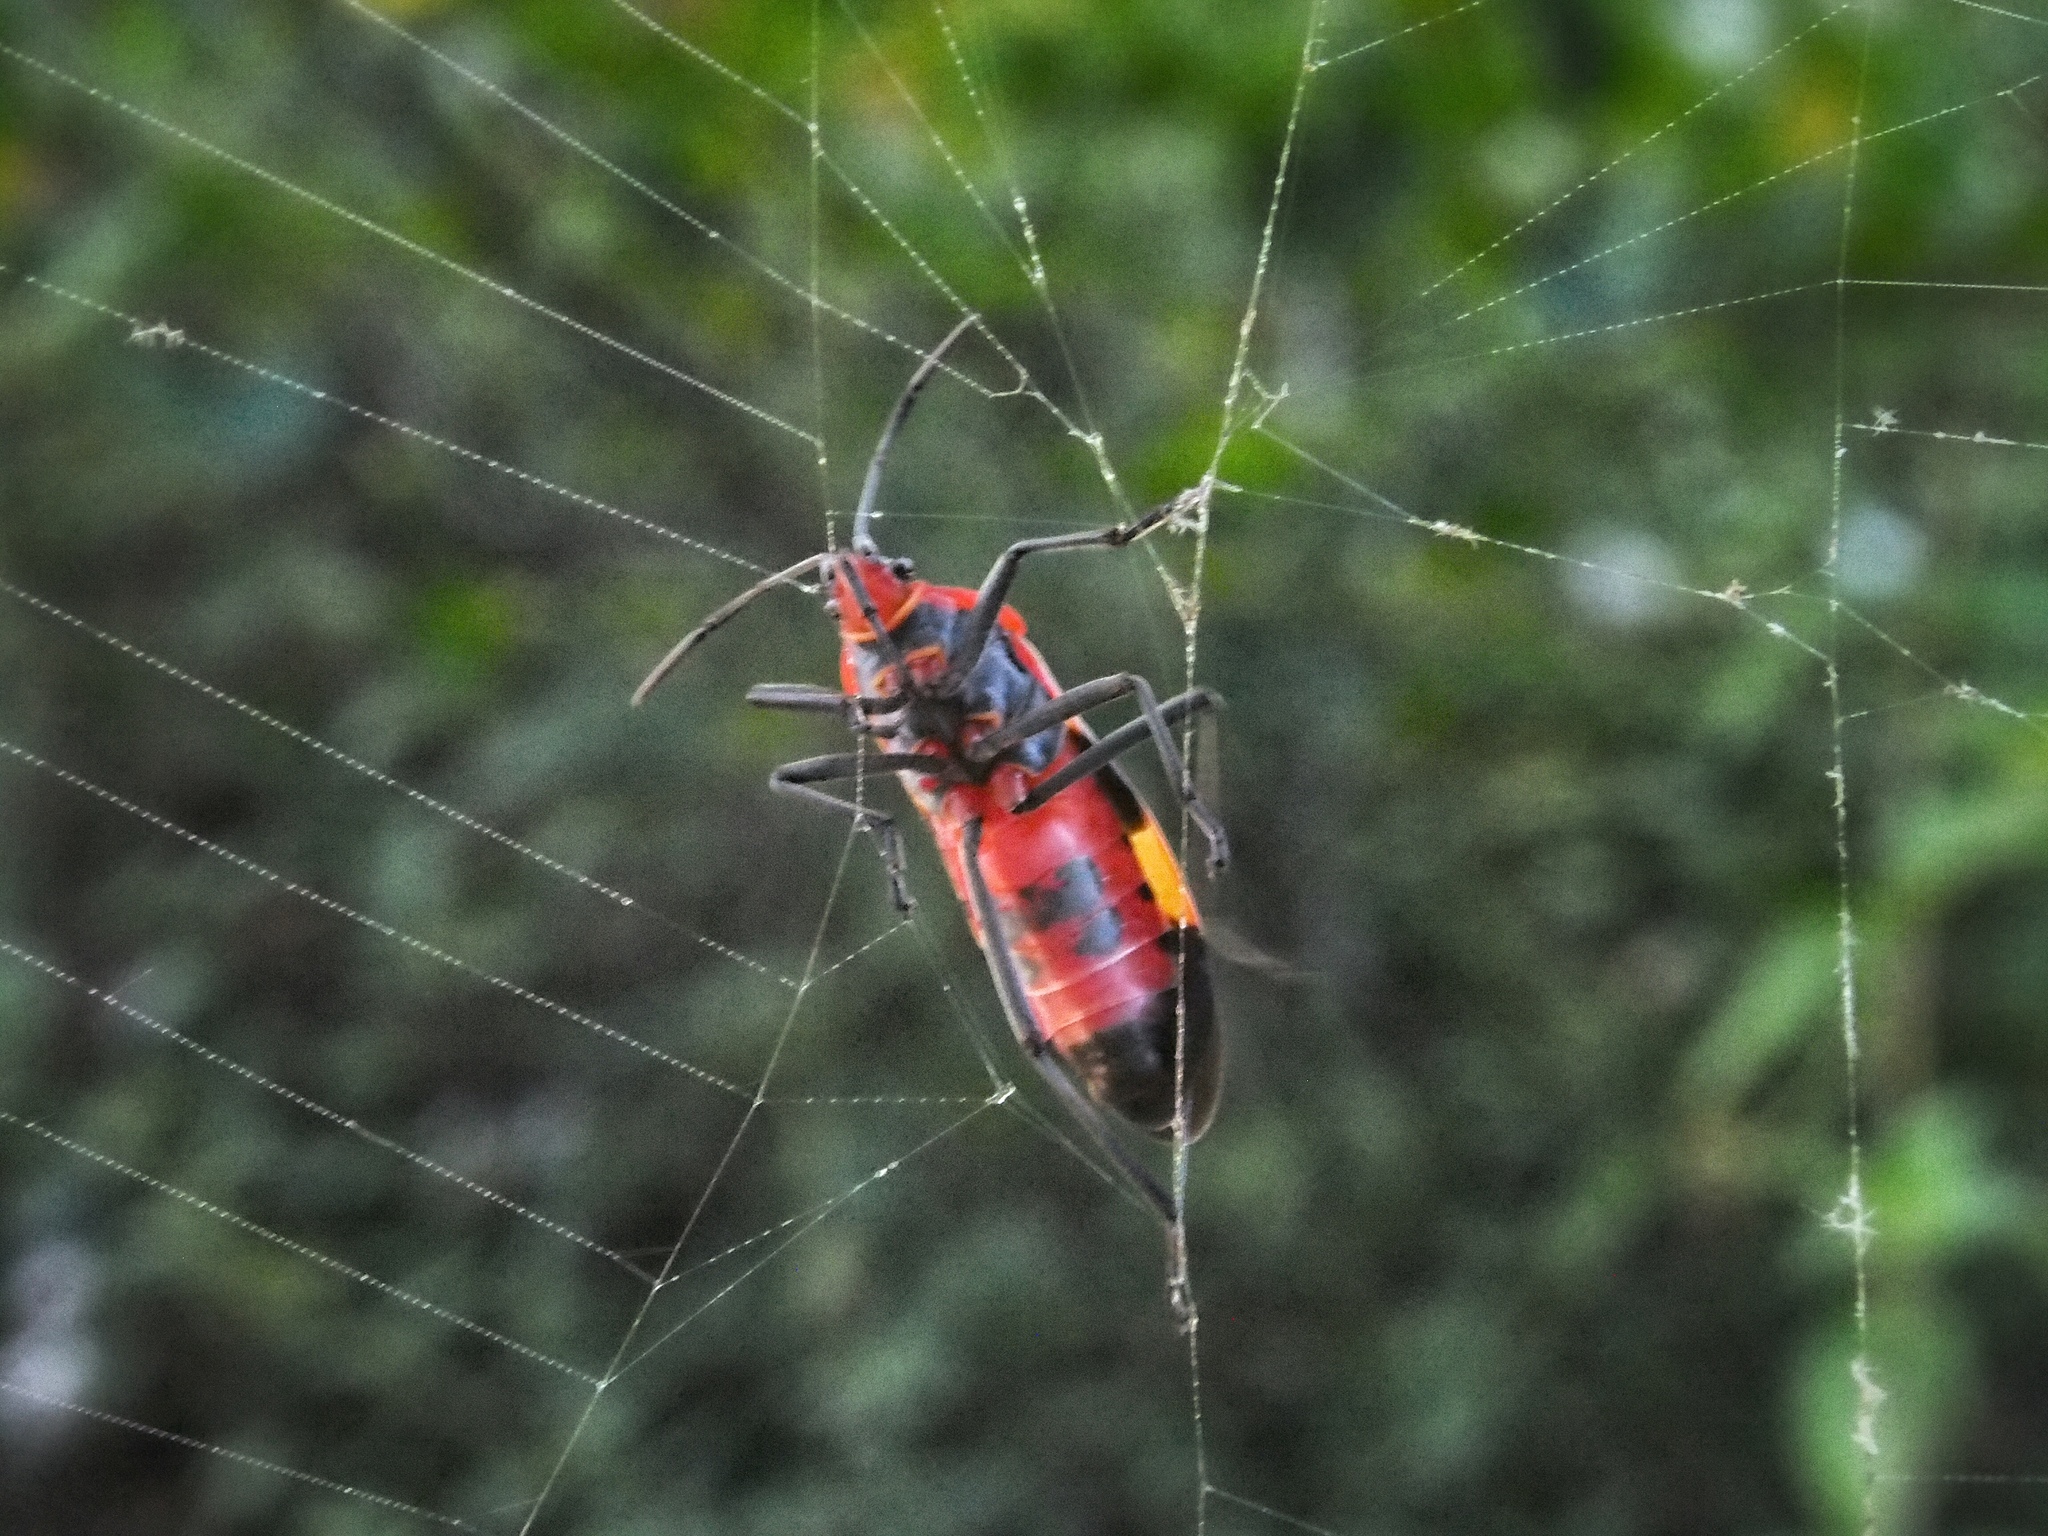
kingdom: Animalia
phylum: Arthropoda
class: Insecta
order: Hemiptera
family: Lygaeidae
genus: Oncopeltus
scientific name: Oncopeltus fasciatus
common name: Large milkweed bug
